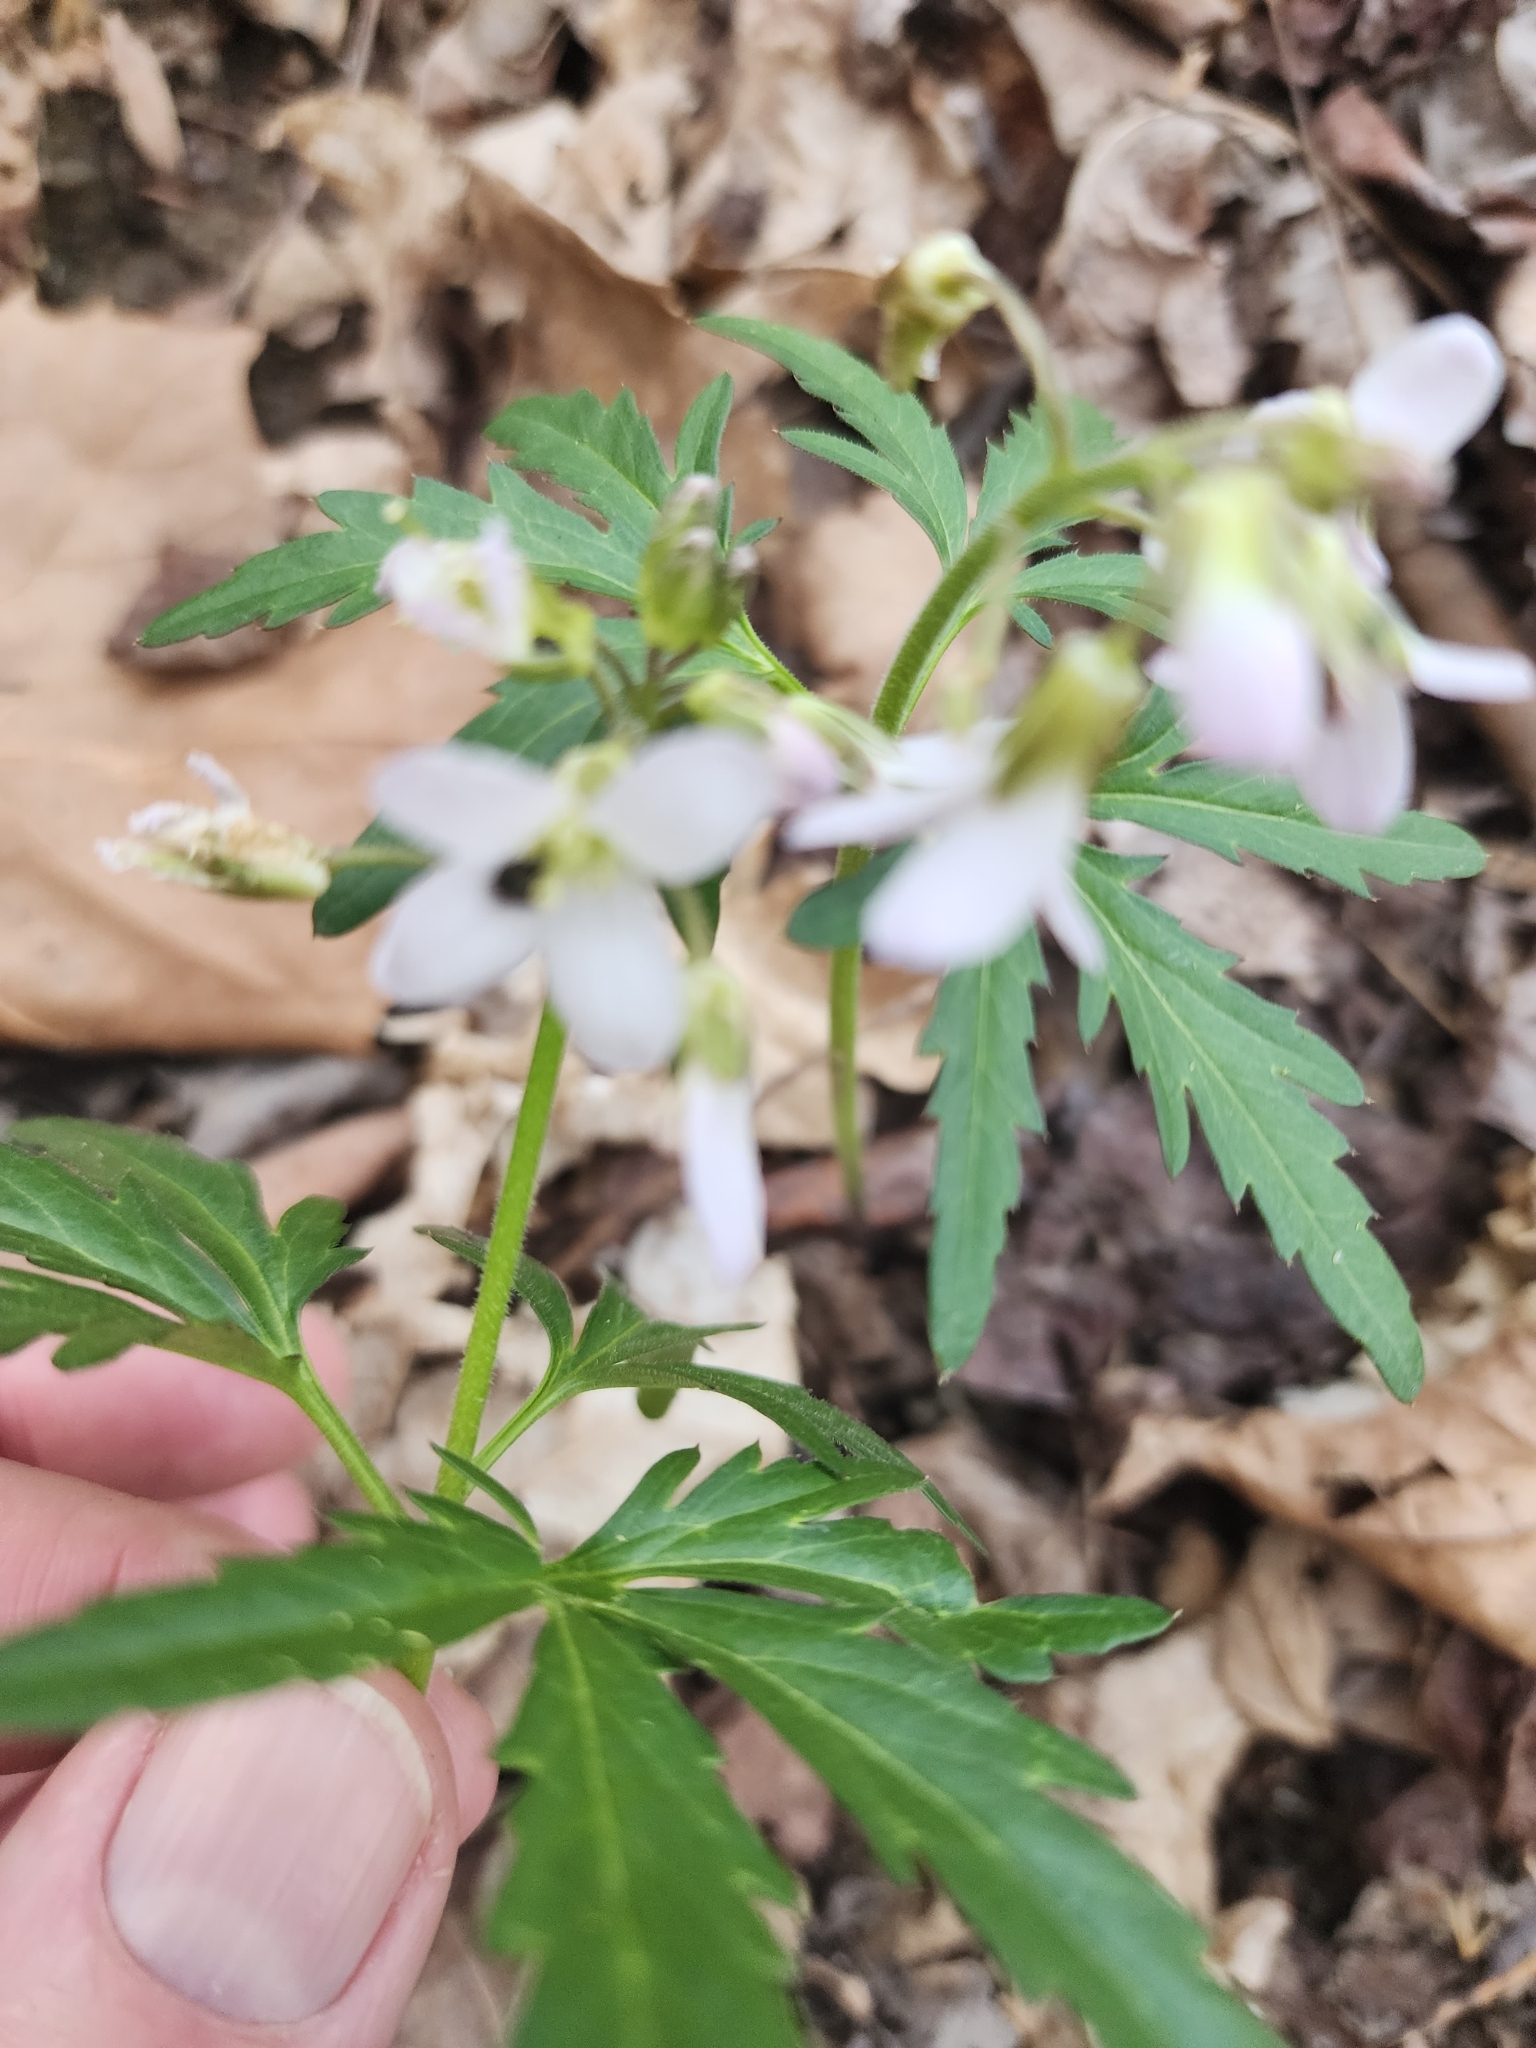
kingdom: Plantae
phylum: Tracheophyta
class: Magnoliopsida
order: Brassicales
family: Brassicaceae
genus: Cardamine
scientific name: Cardamine concatenata
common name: Cut-leaf toothcup
